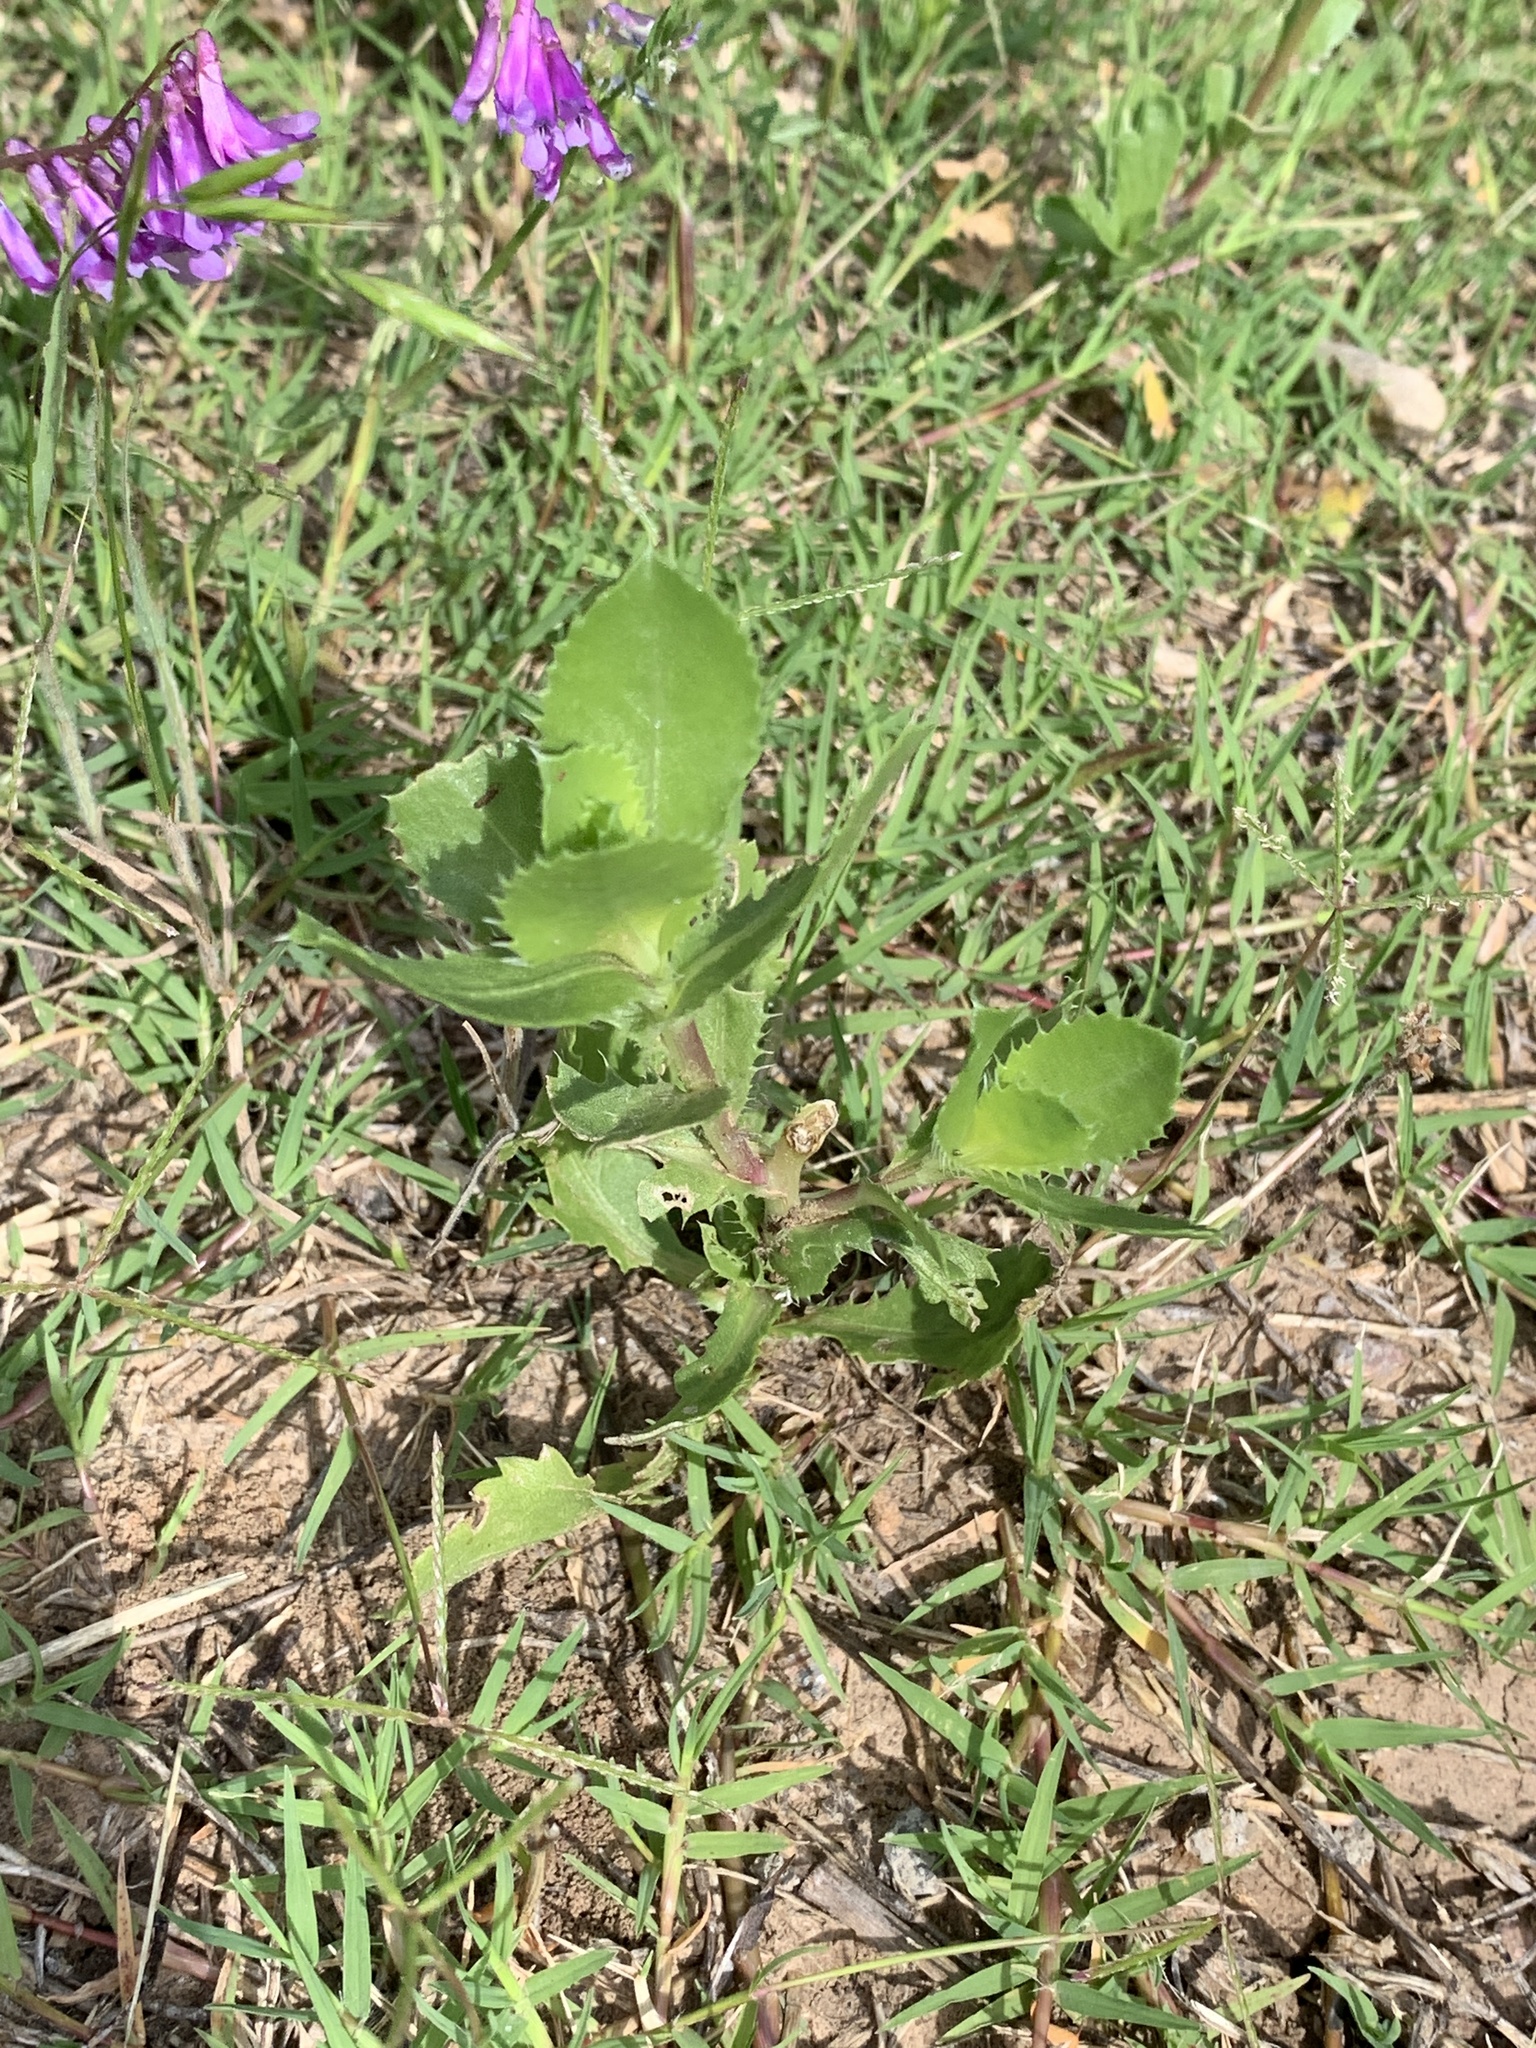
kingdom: Plantae
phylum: Tracheophyta
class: Magnoliopsida
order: Asterales
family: Asteraceae
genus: Grindelia
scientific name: Grindelia ciliata
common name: Goldenweed
